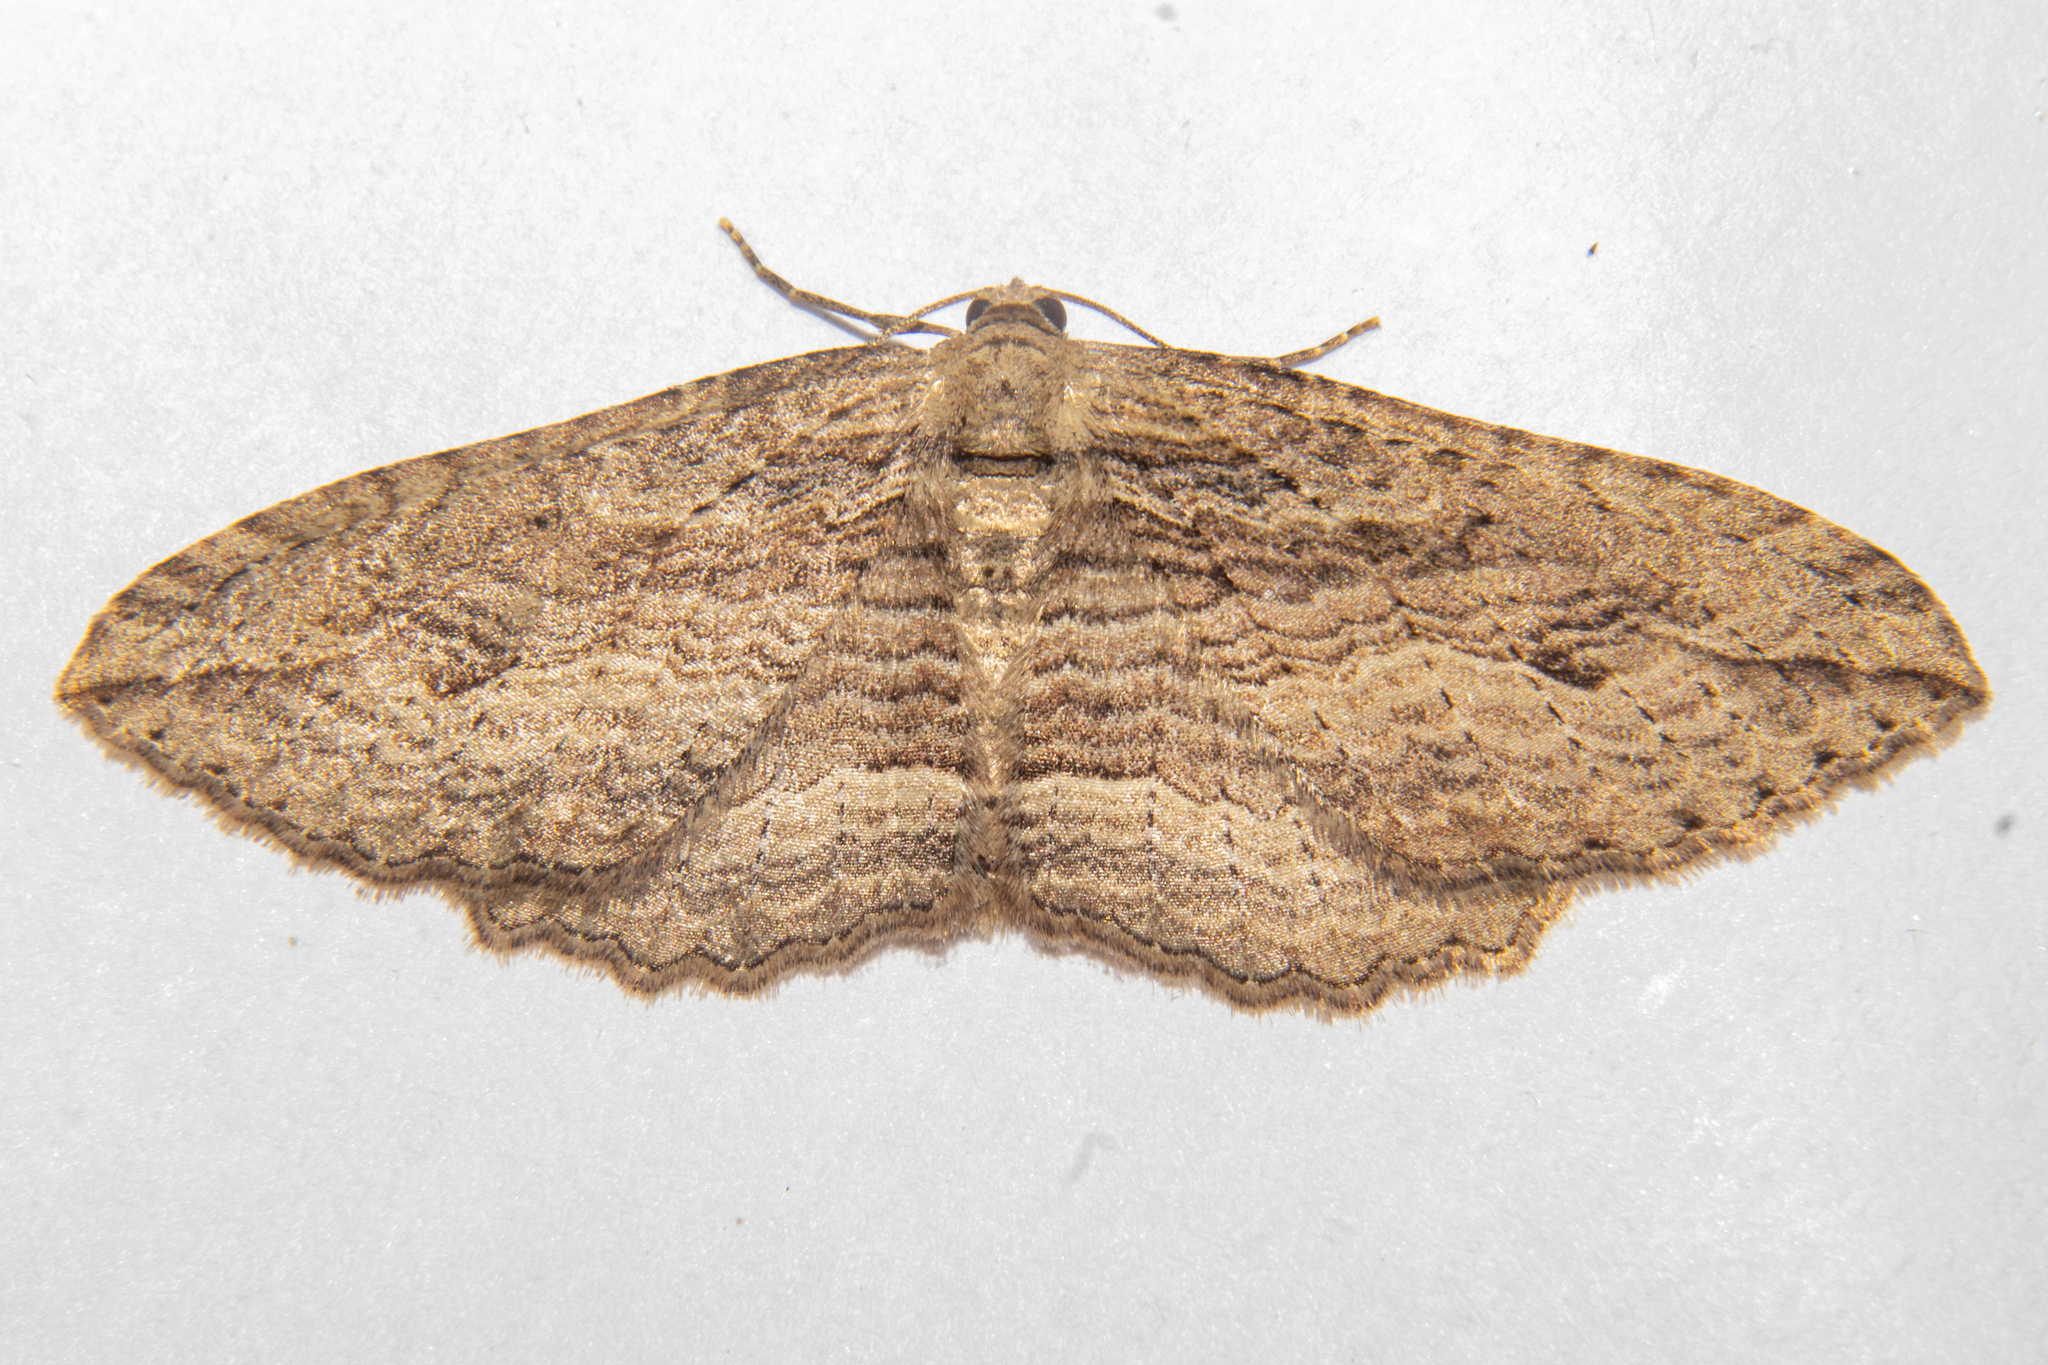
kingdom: Animalia
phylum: Arthropoda
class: Insecta
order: Lepidoptera
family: Geometridae
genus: Austrocidaria
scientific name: Austrocidaria gobiata
